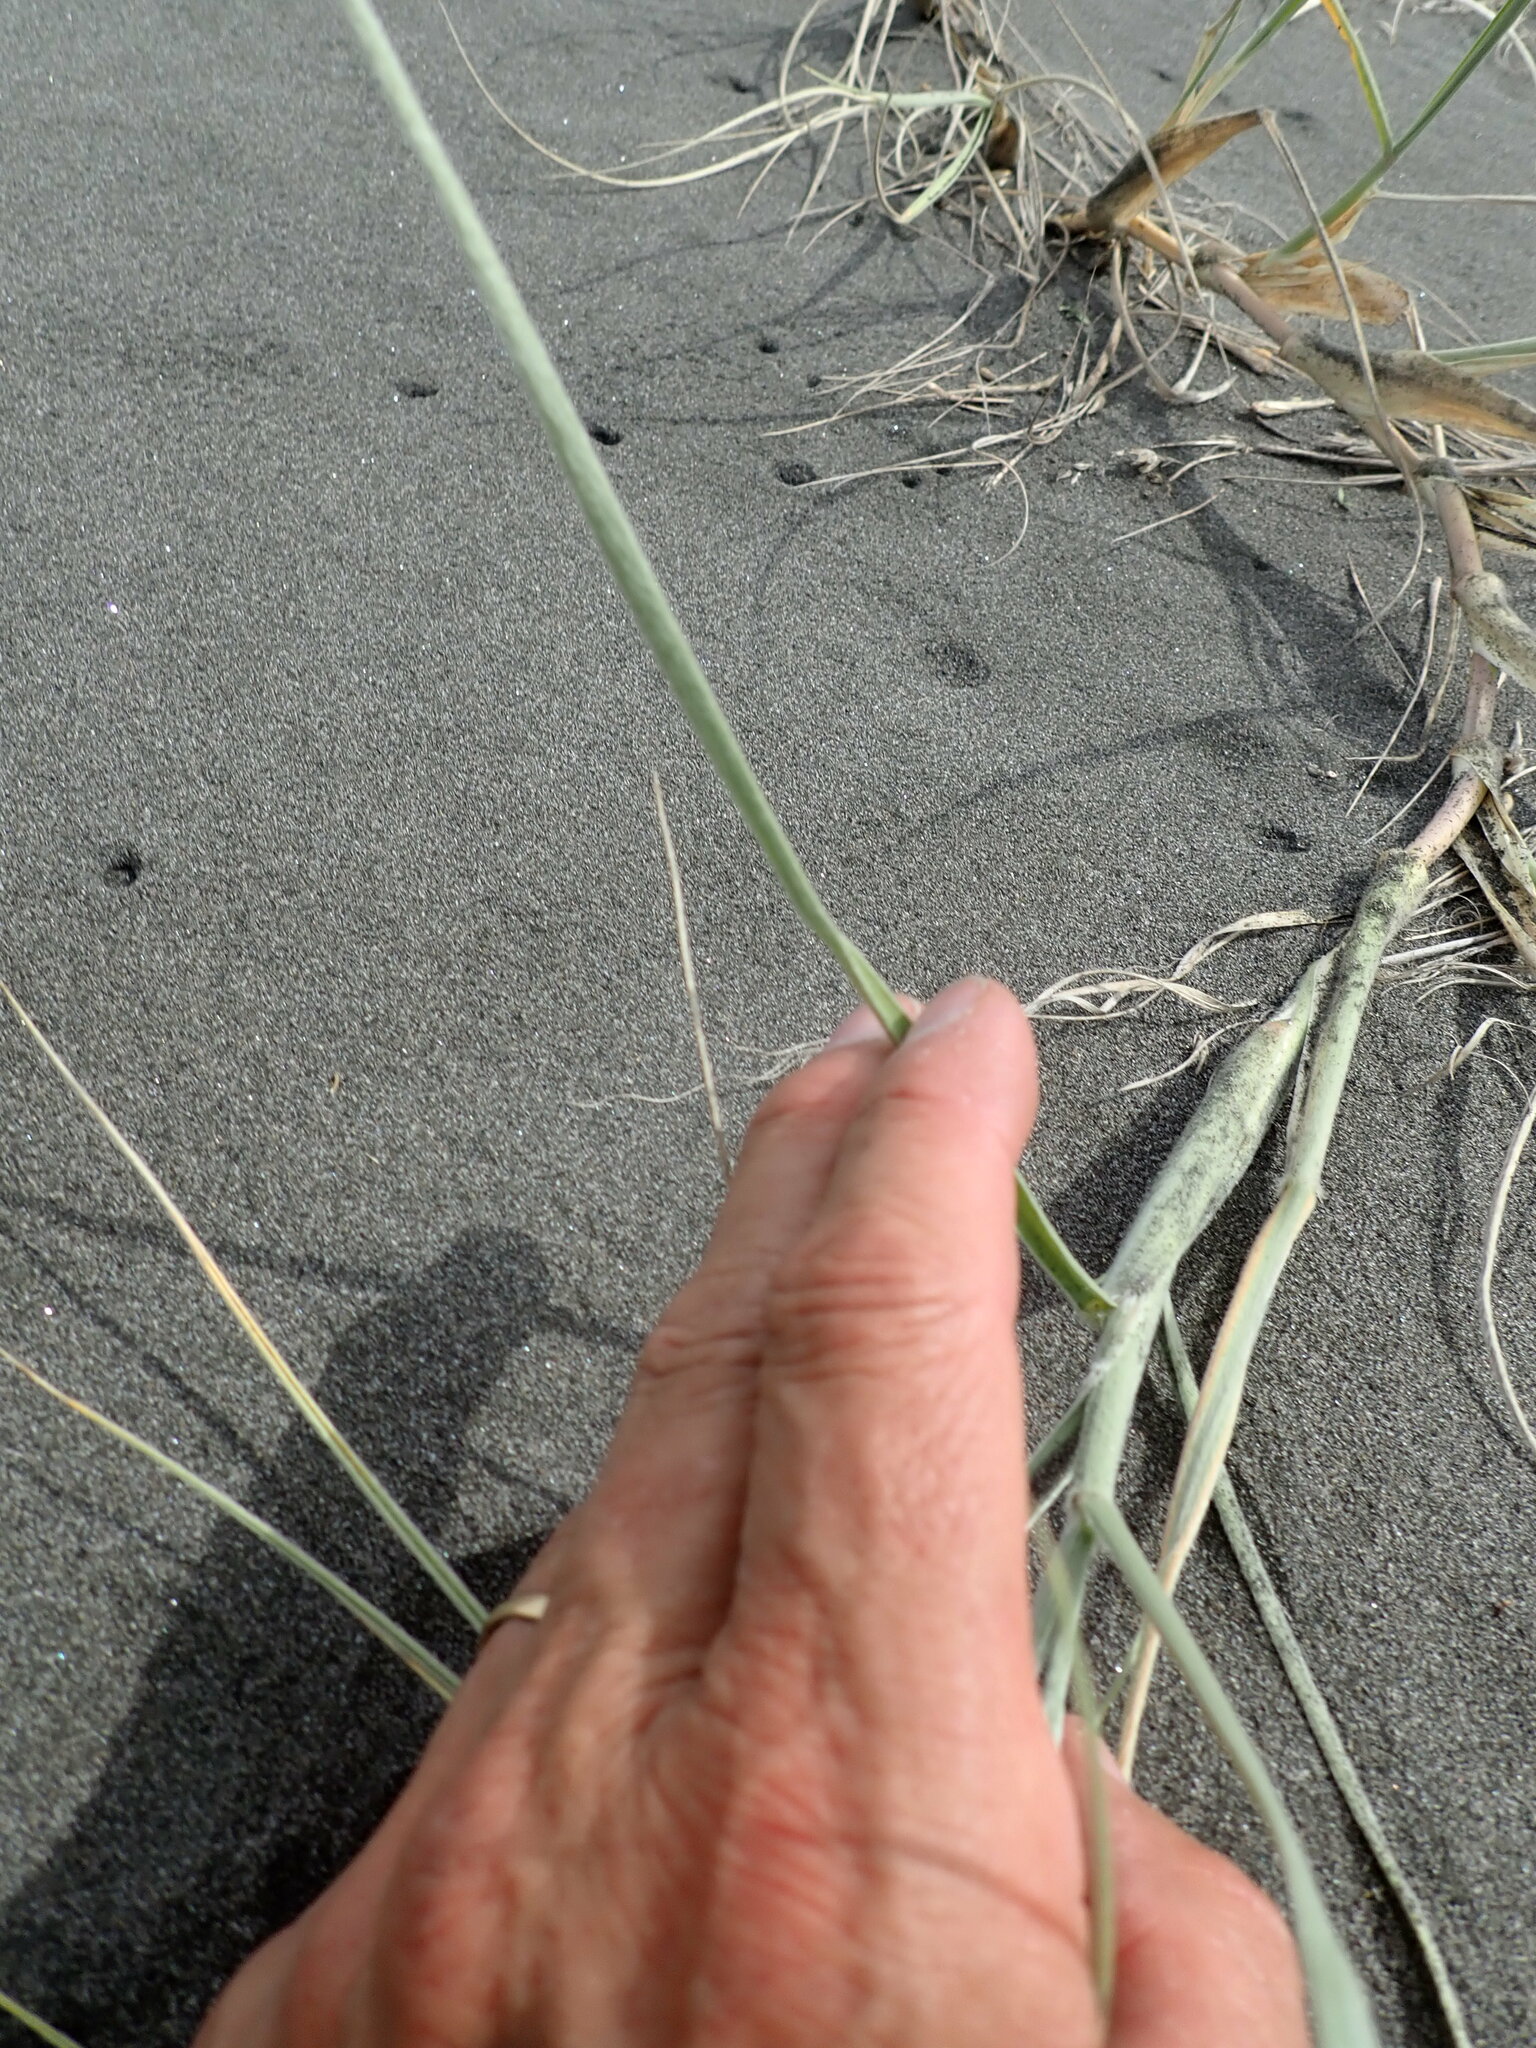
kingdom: Plantae
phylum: Tracheophyta
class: Liliopsida
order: Poales
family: Poaceae
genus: Spinifex
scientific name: Spinifex sericeus
